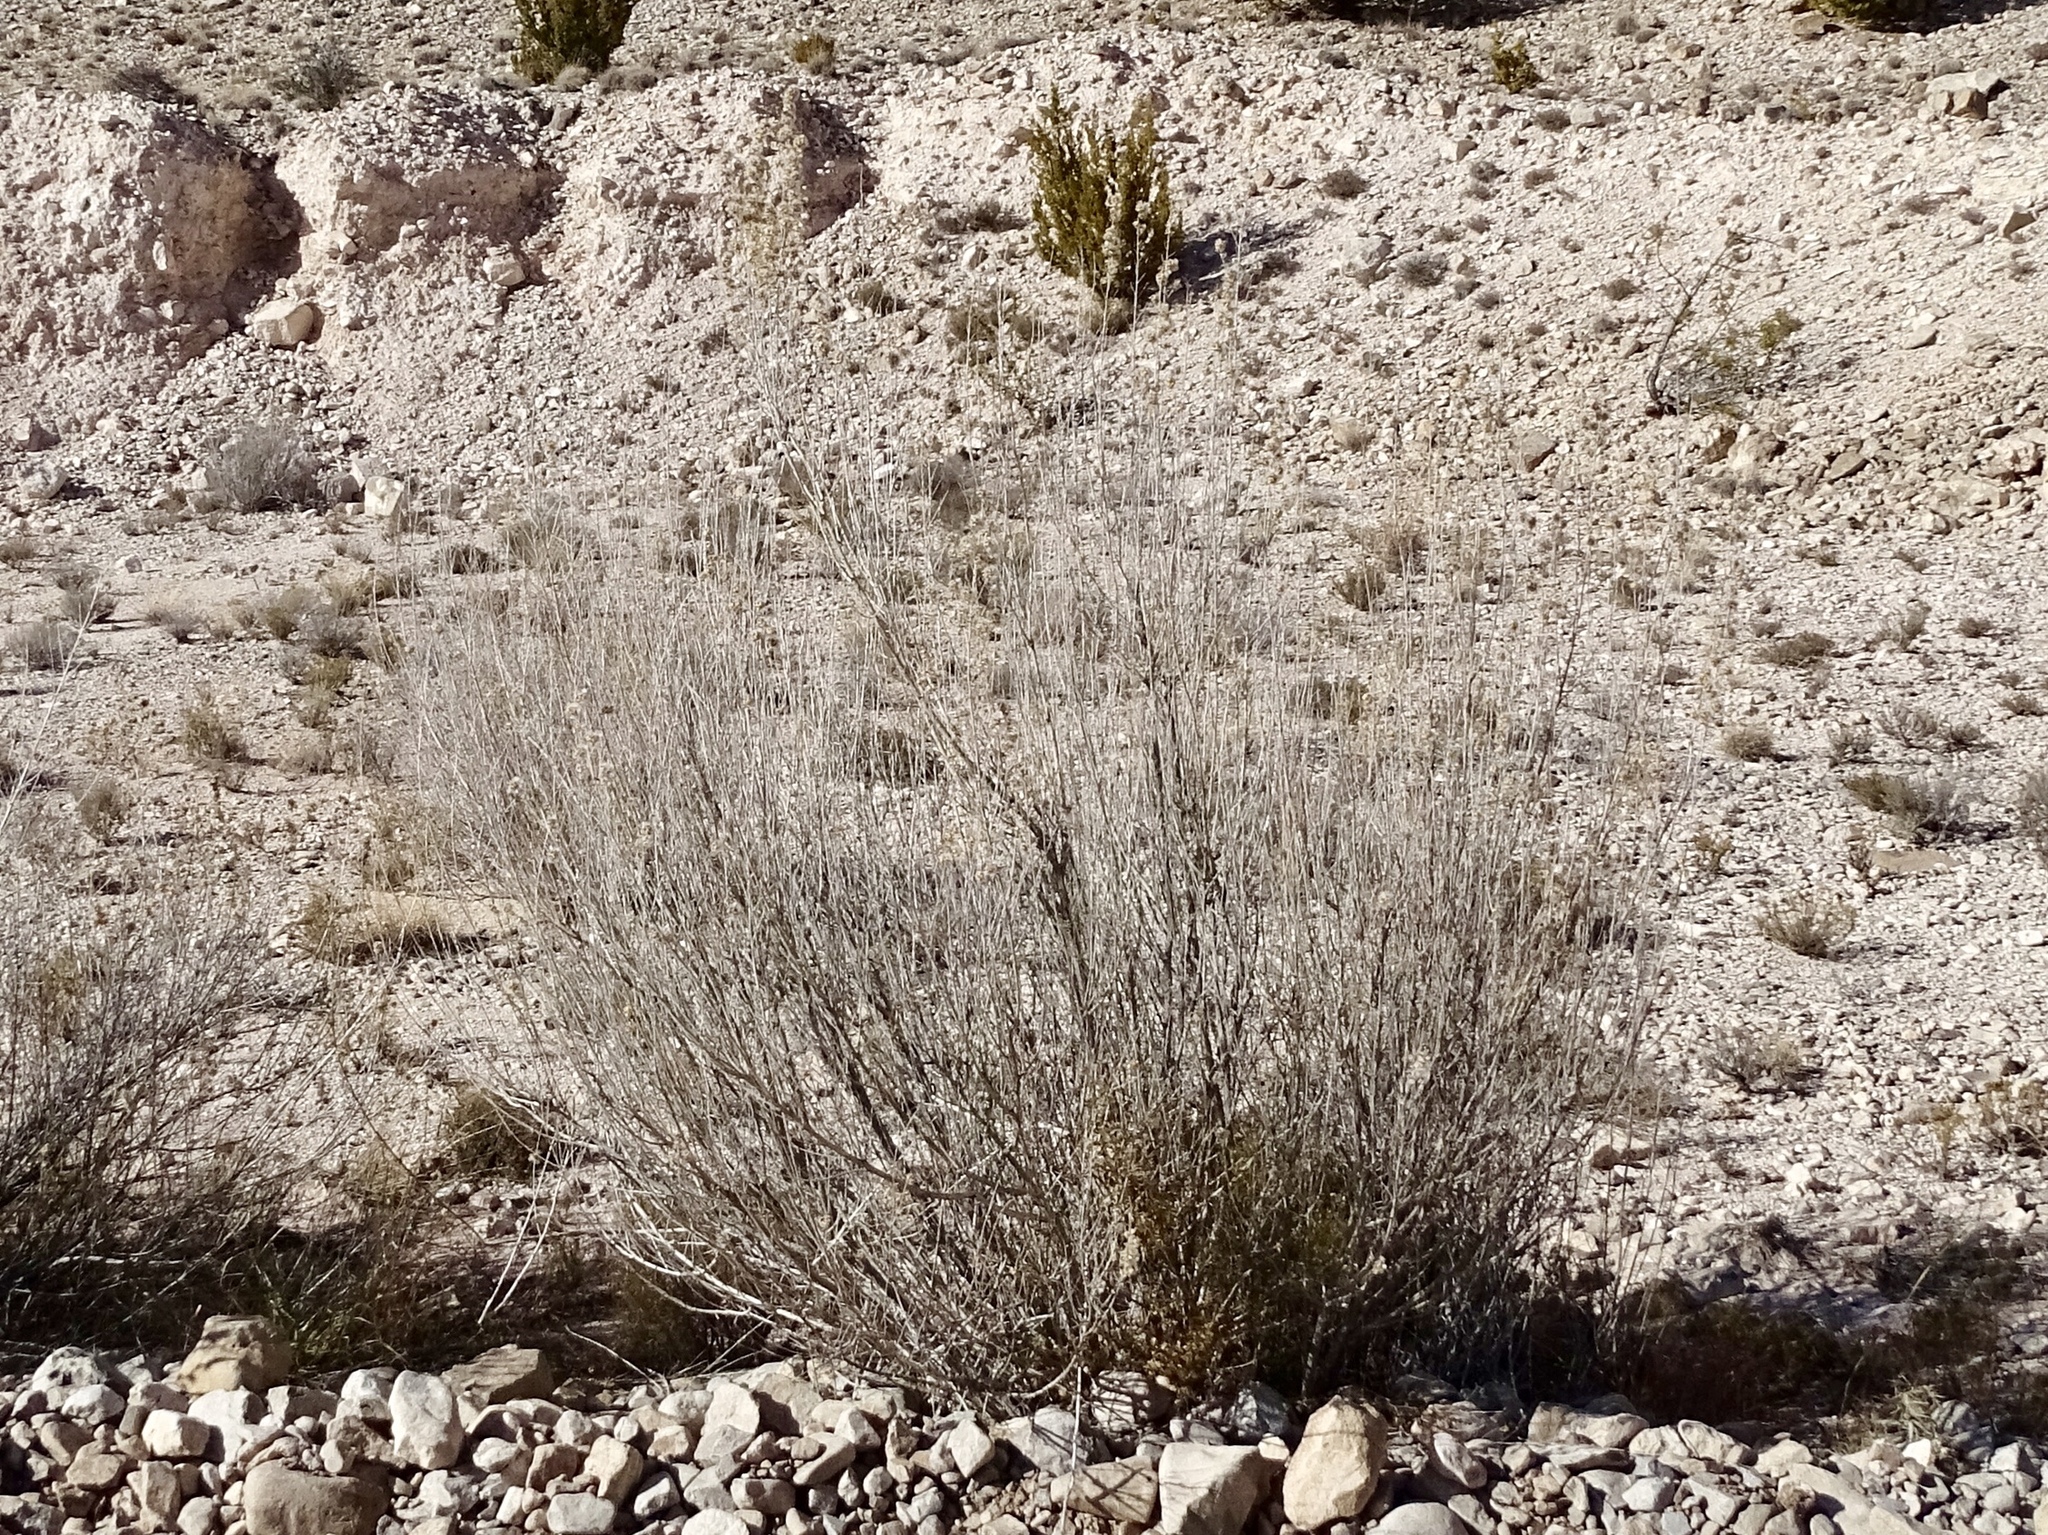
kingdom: Plantae
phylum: Tracheophyta
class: Magnoliopsida
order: Asterales
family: Asteraceae
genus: Brickellia
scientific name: Brickellia laciniata
